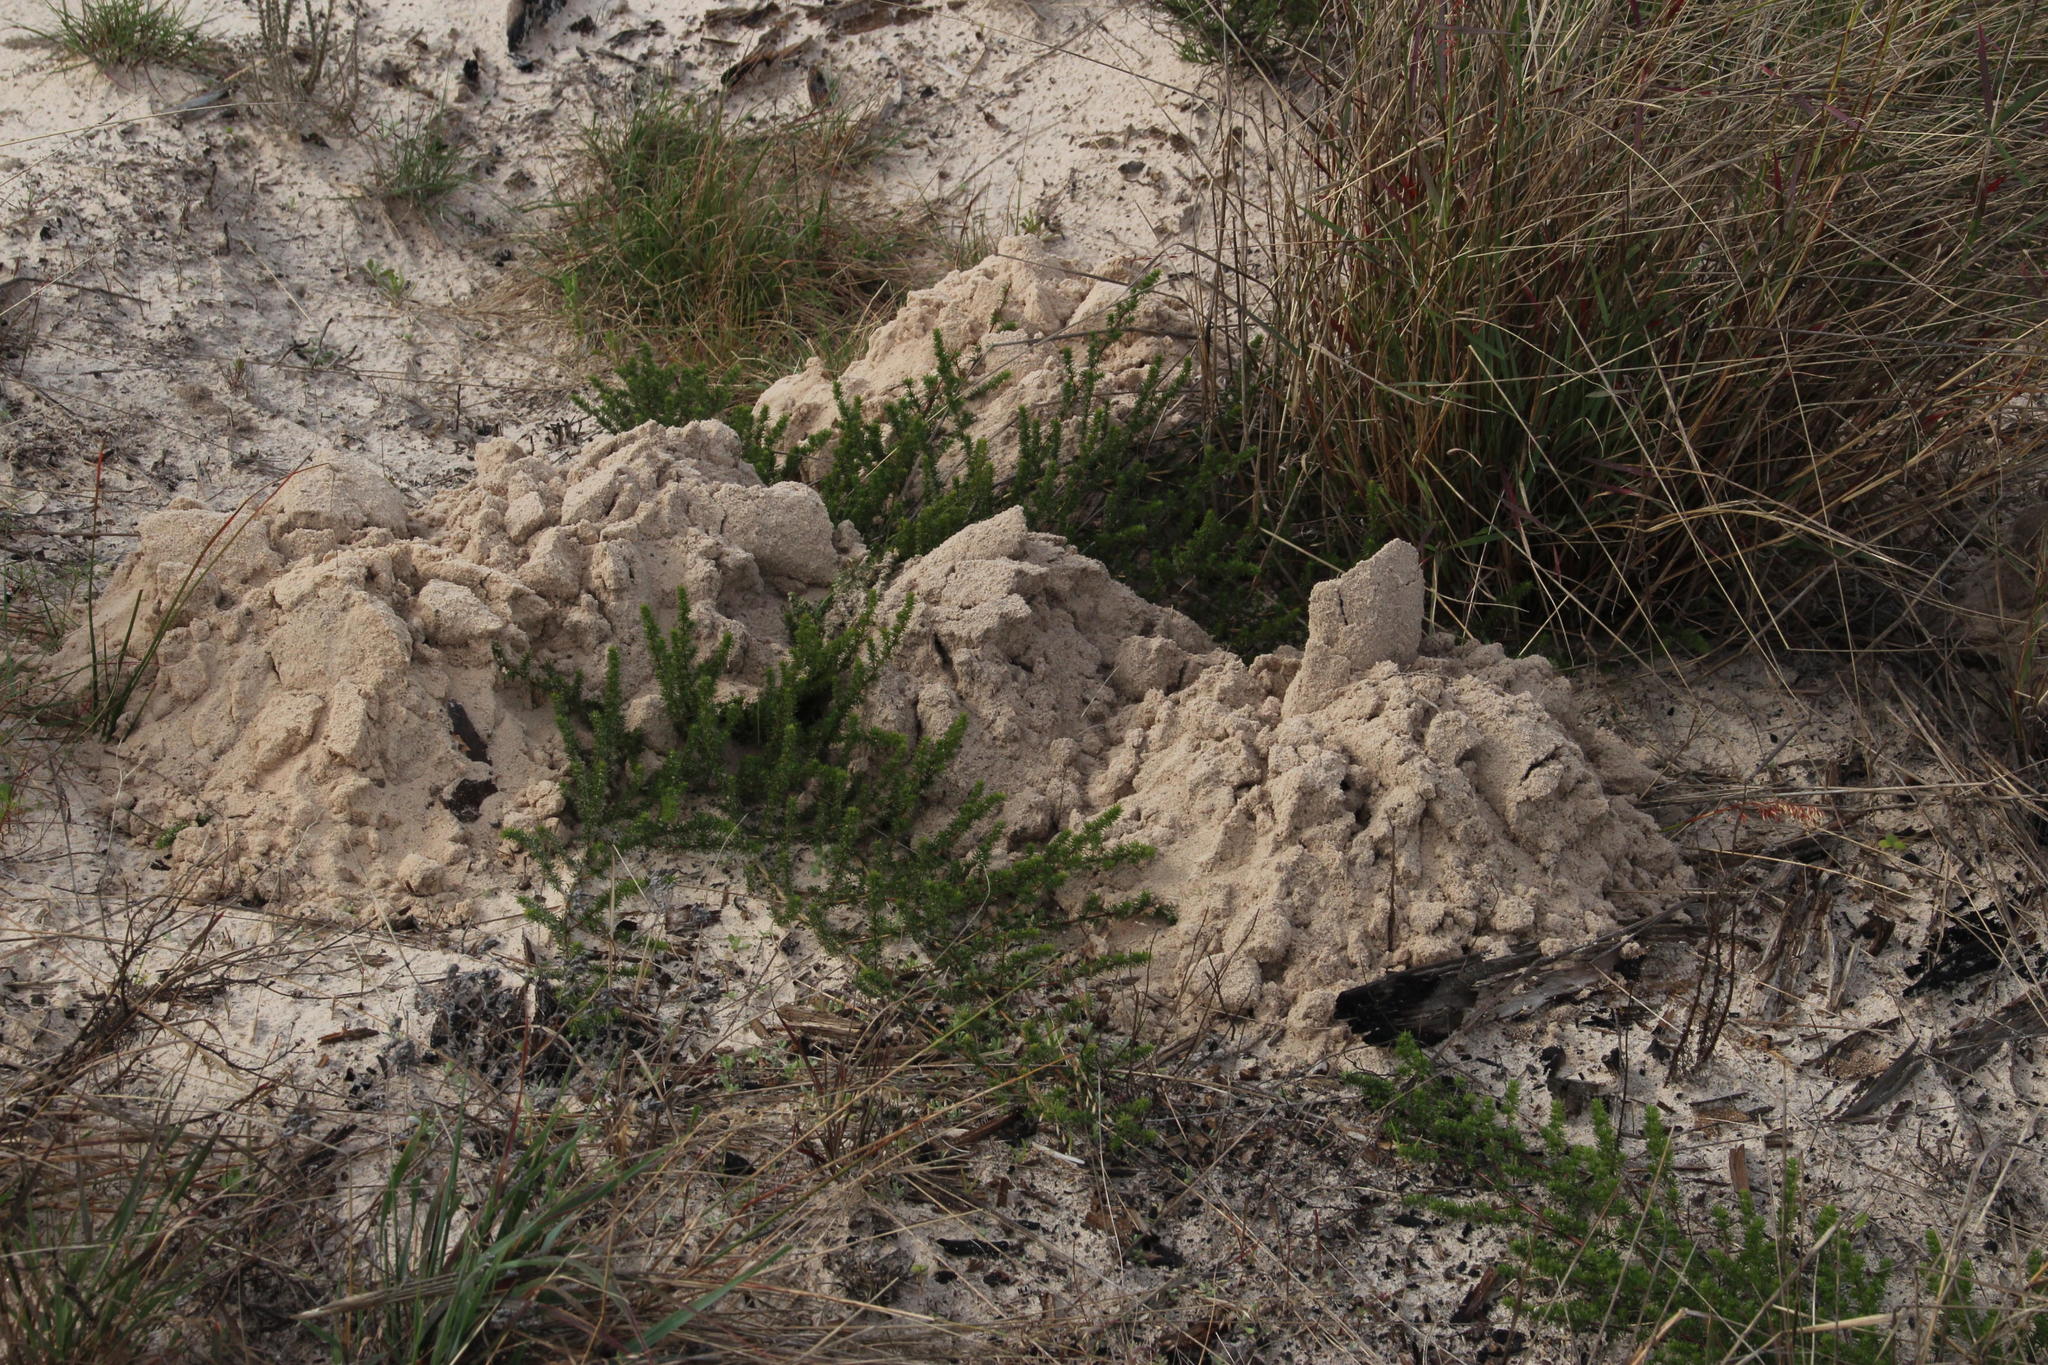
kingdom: Animalia
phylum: Chordata
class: Mammalia
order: Rodentia
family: Bathyergidae
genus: Bathyergus
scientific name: Bathyergus suillus
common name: Cape dune mole rat
